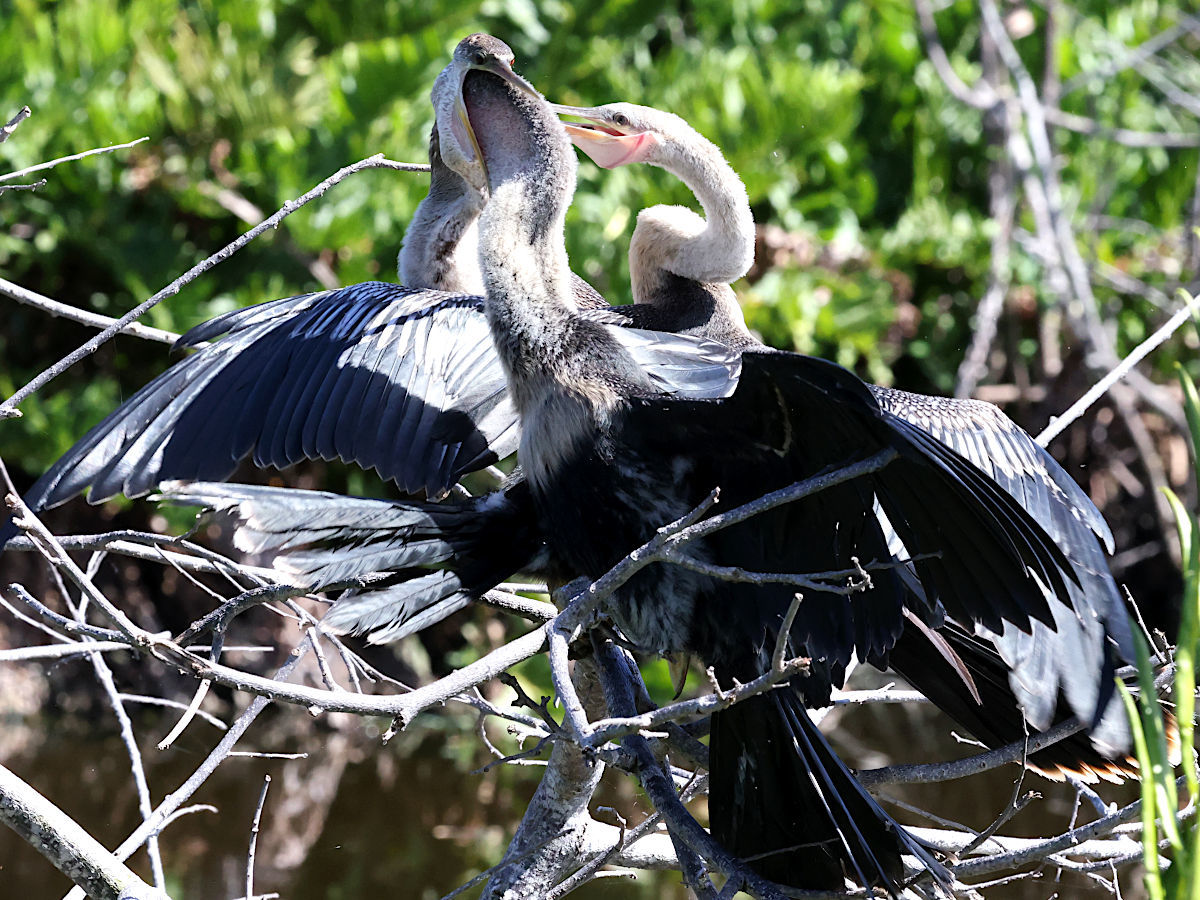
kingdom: Animalia
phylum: Chordata
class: Aves
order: Suliformes
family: Anhingidae
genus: Anhinga
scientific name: Anhinga anhinga
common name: Anhinga
